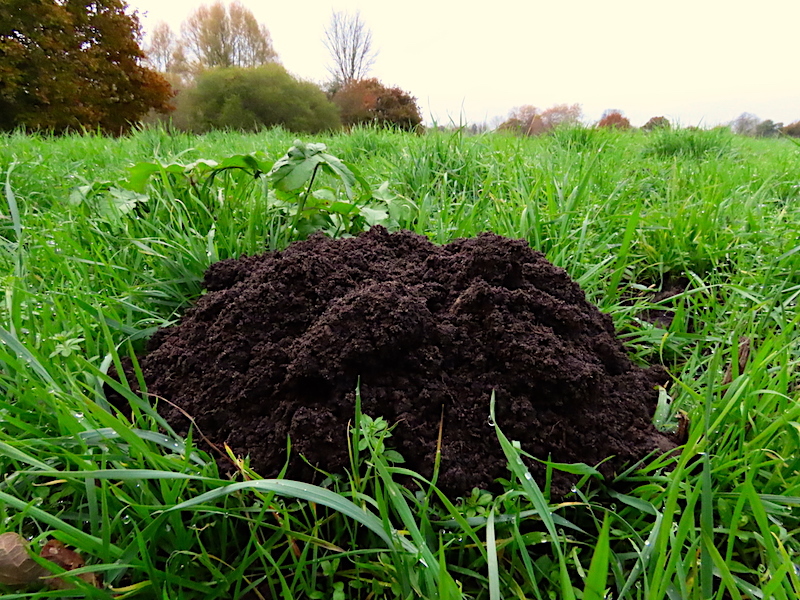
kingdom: Animalia
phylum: Chordata
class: Mammalia
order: Soricomorpha
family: Talpidae
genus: Talpa
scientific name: Talpa europaea
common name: European mole
